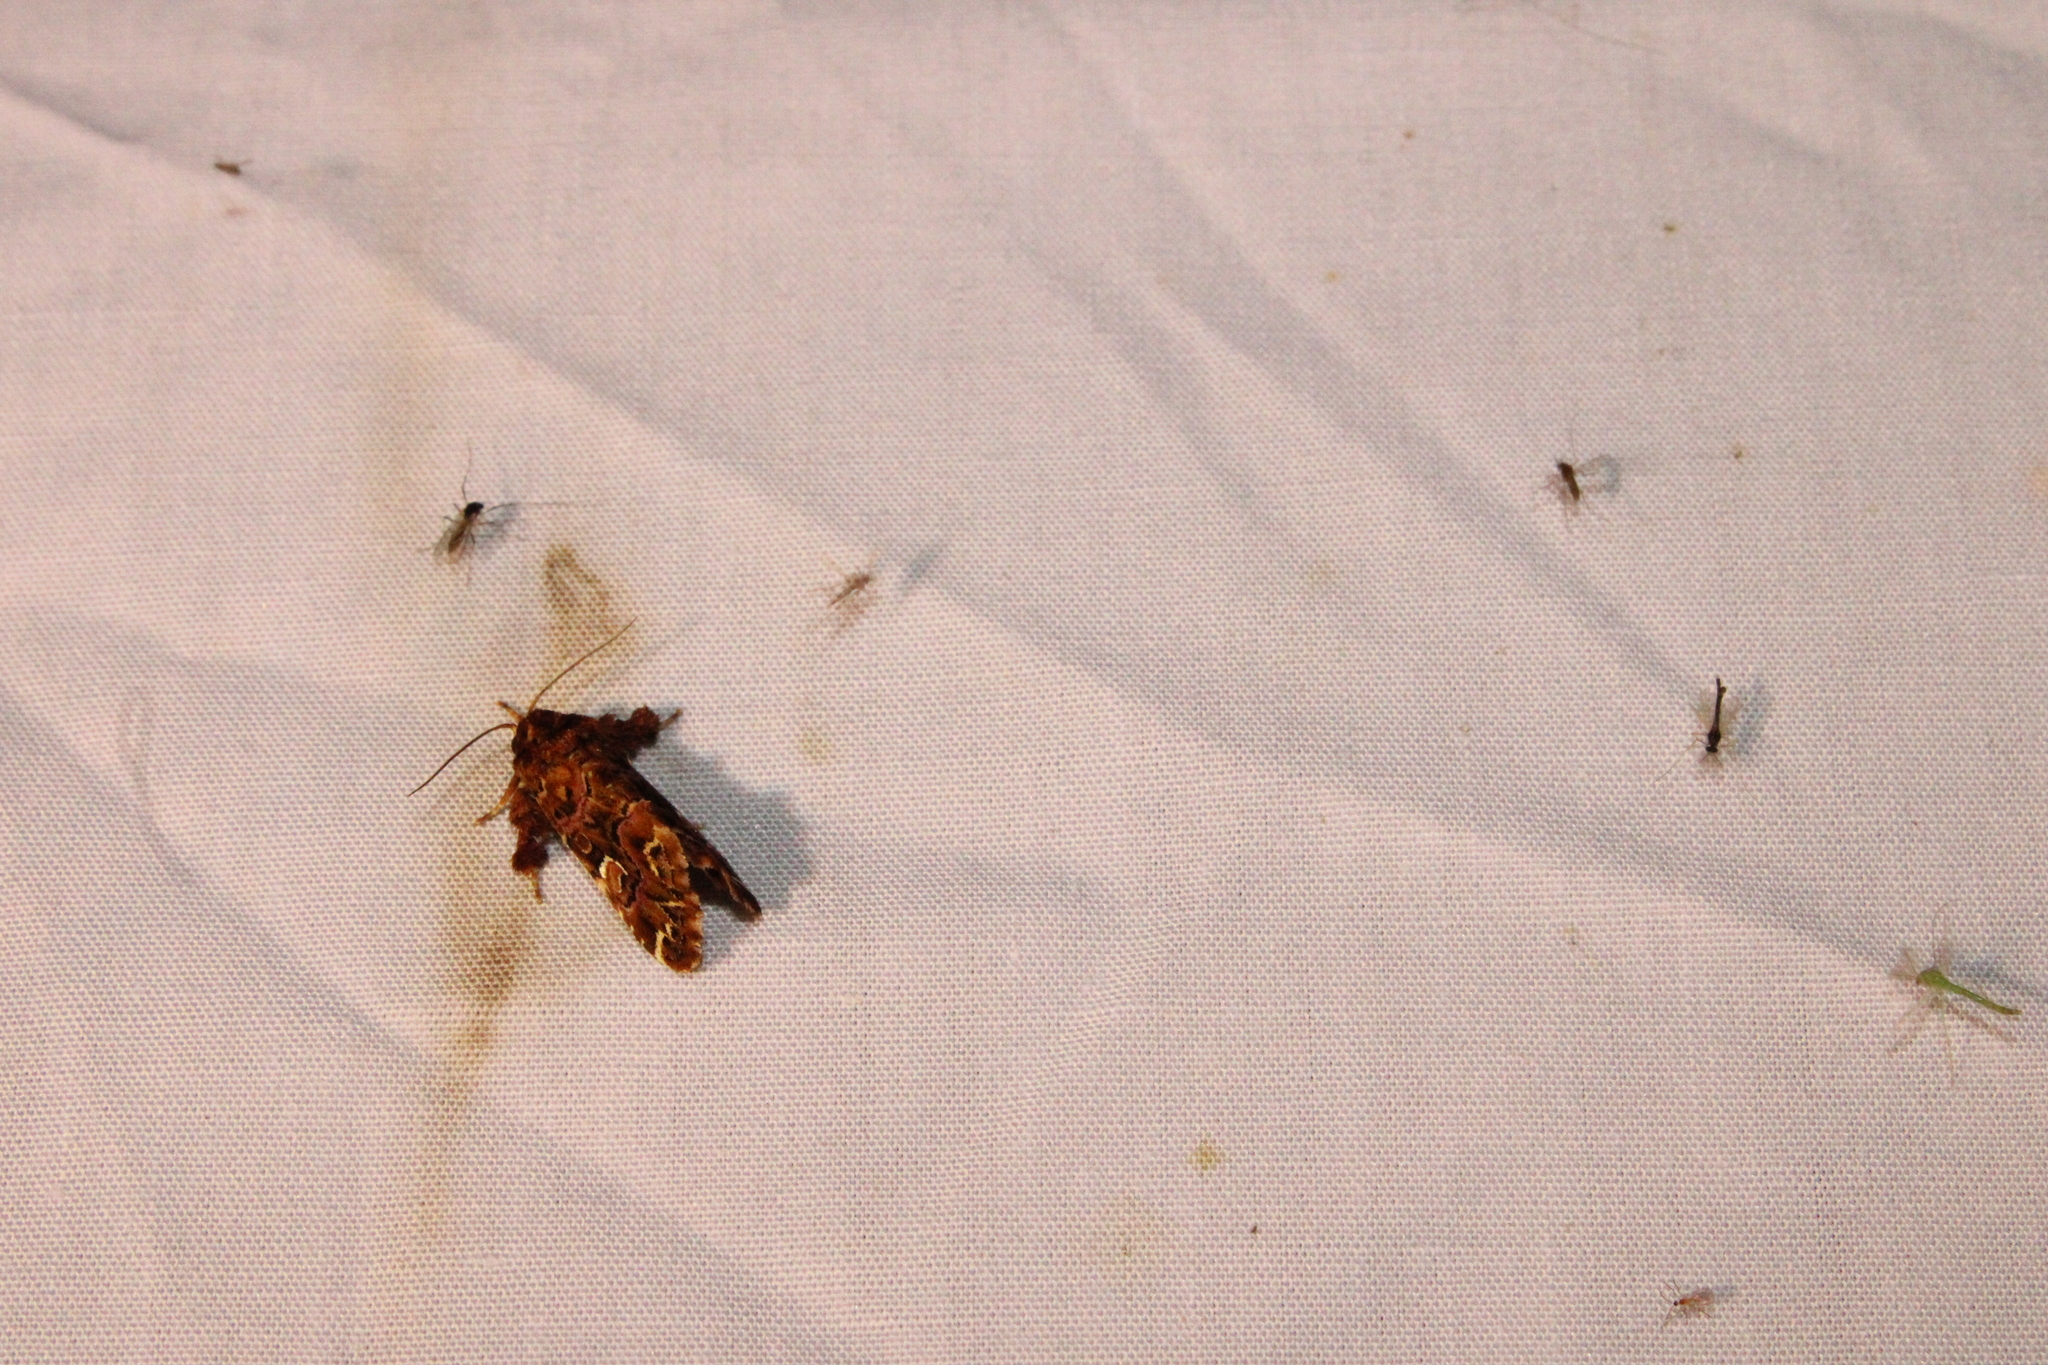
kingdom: Animalia
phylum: Arthropoda
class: Insecta
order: Lepidoptera
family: Noctuidae
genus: Callopistria
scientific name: Callopistria mollissima
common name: Pink-shaded fern moth
